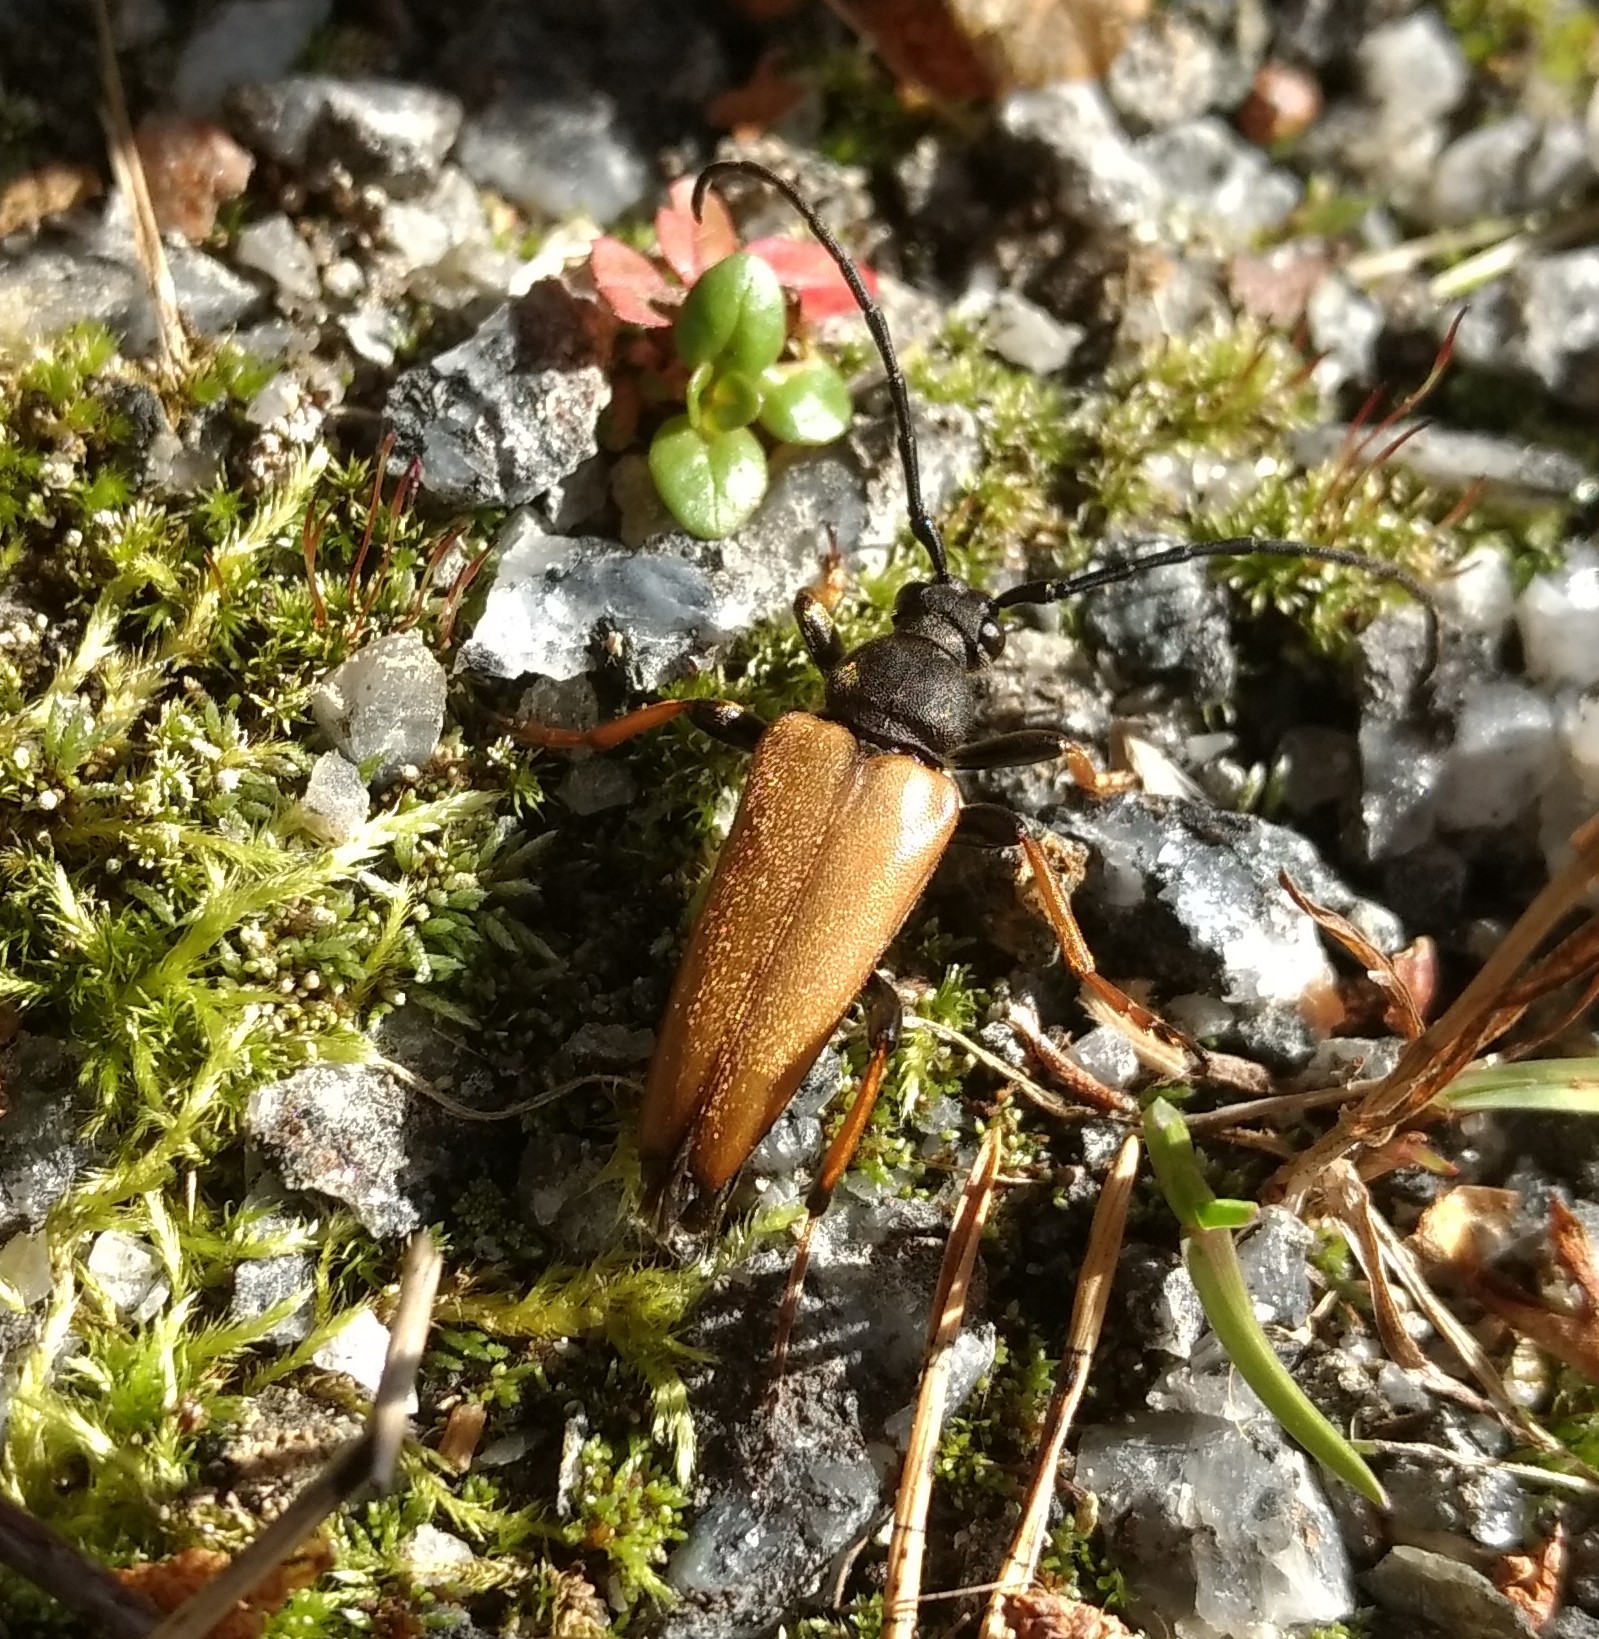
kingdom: Animalia
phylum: Arthropoda
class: Insecta
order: Coleoptera
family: Cerambycidae
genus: Stictoleptura
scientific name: Stictoleptura rubra
